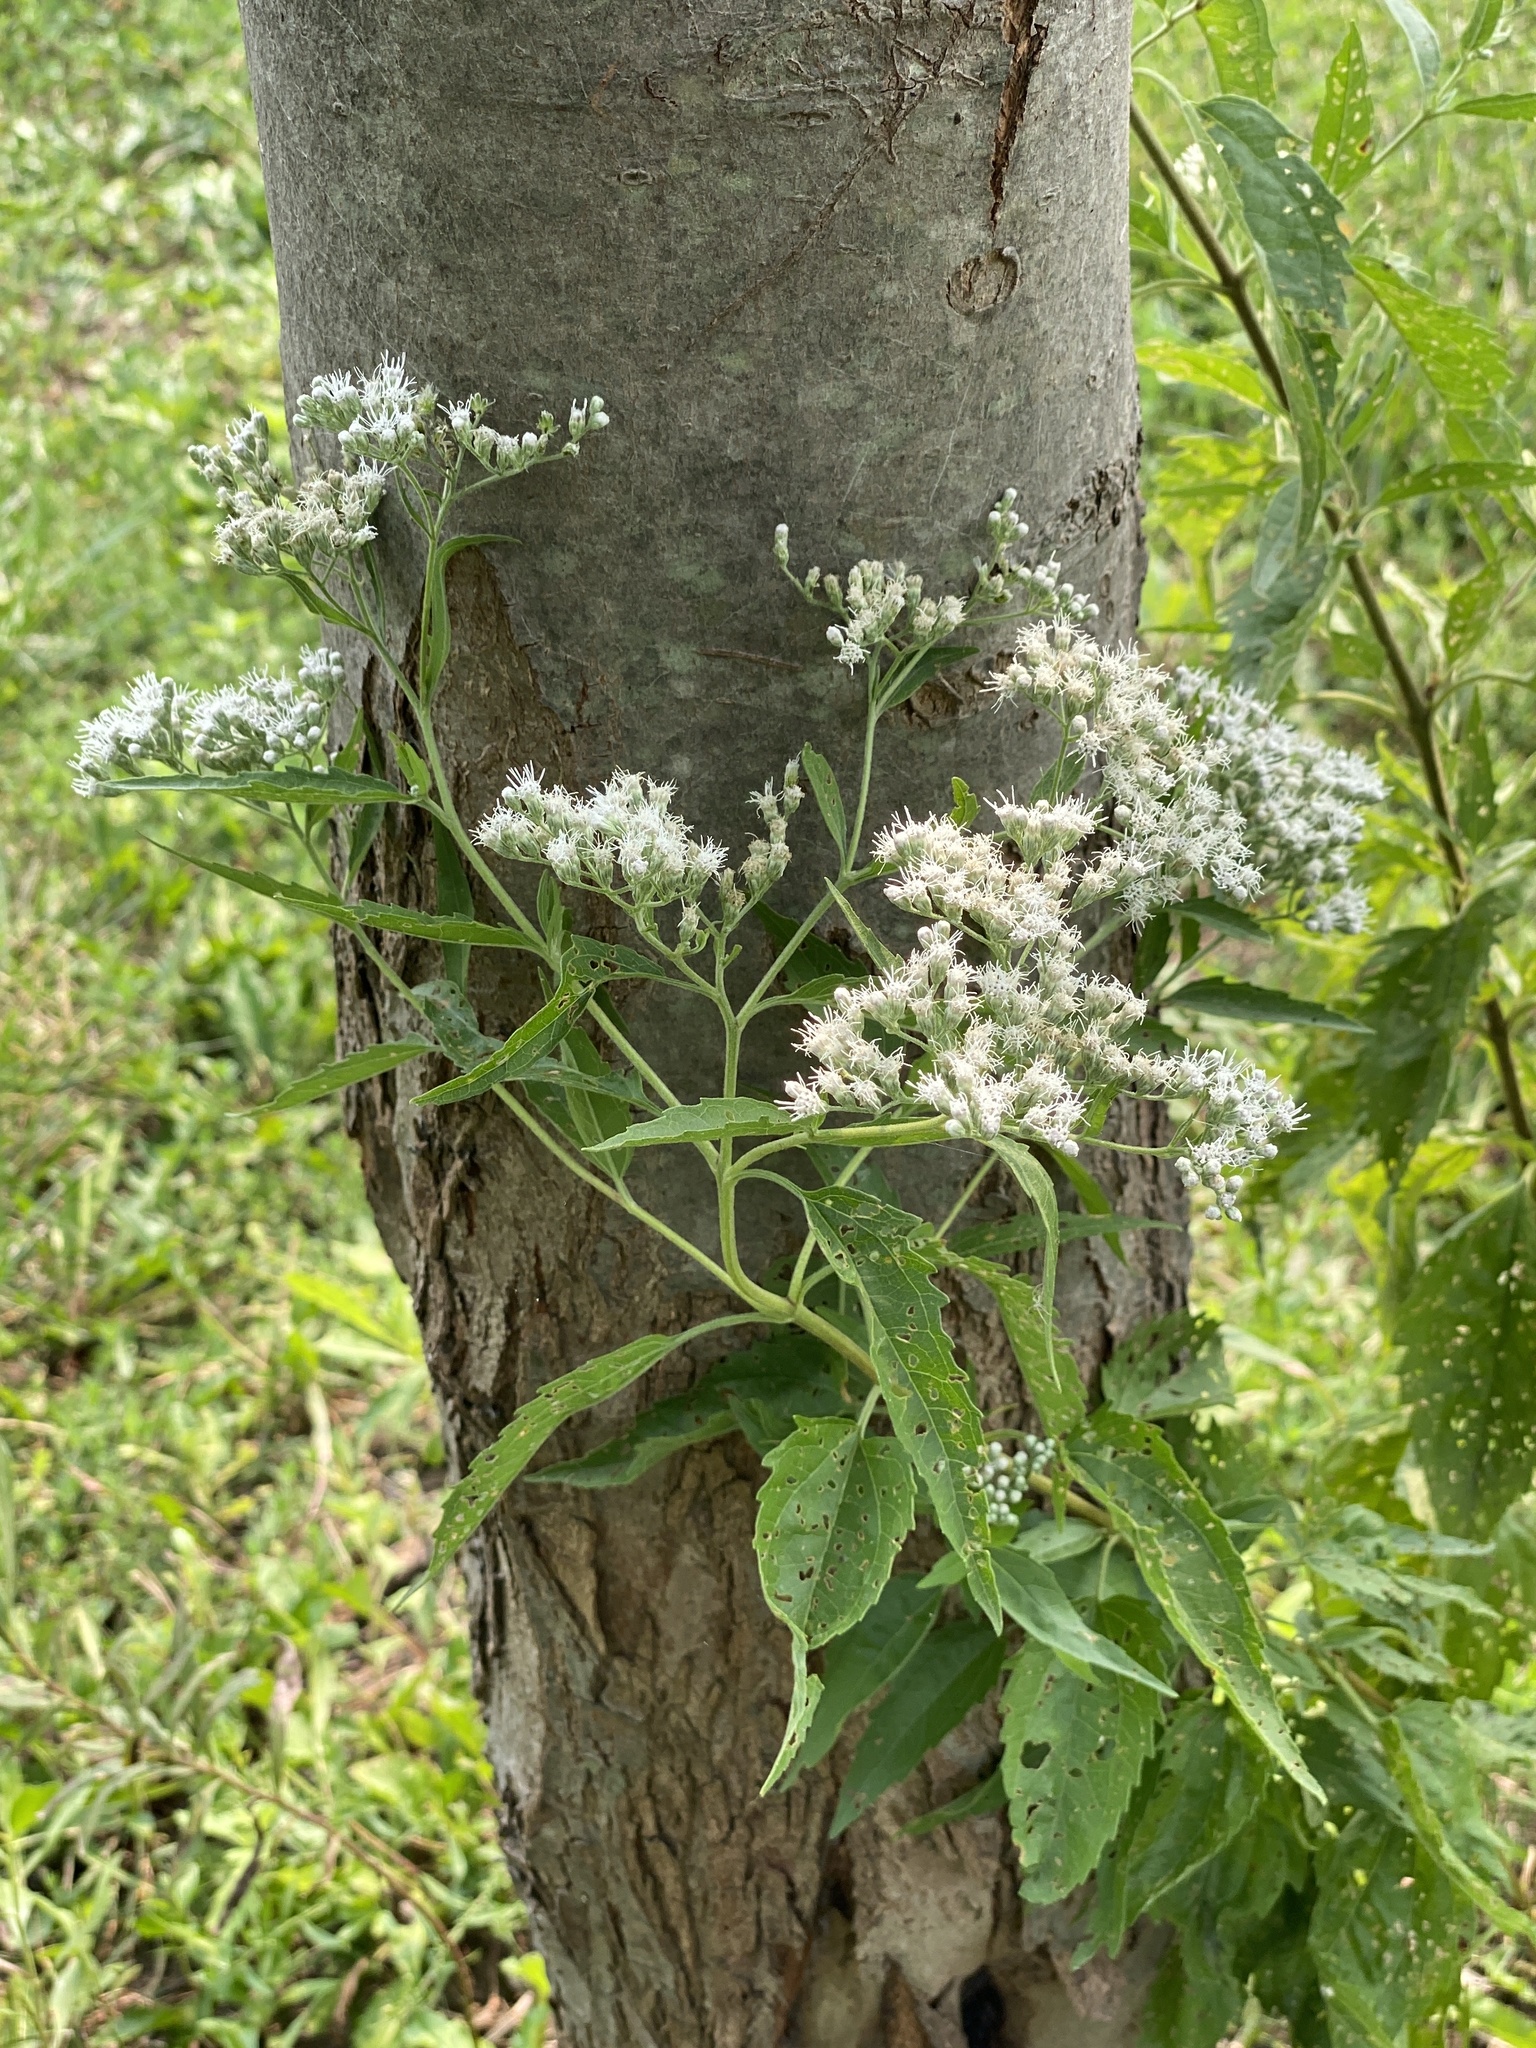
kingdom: Plantae
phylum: Tracheophyta
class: Magnoliopsida
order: Asterales
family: Asteraceae
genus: Eupatorium
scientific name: Eupatorium serotinum
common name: Late boneset
